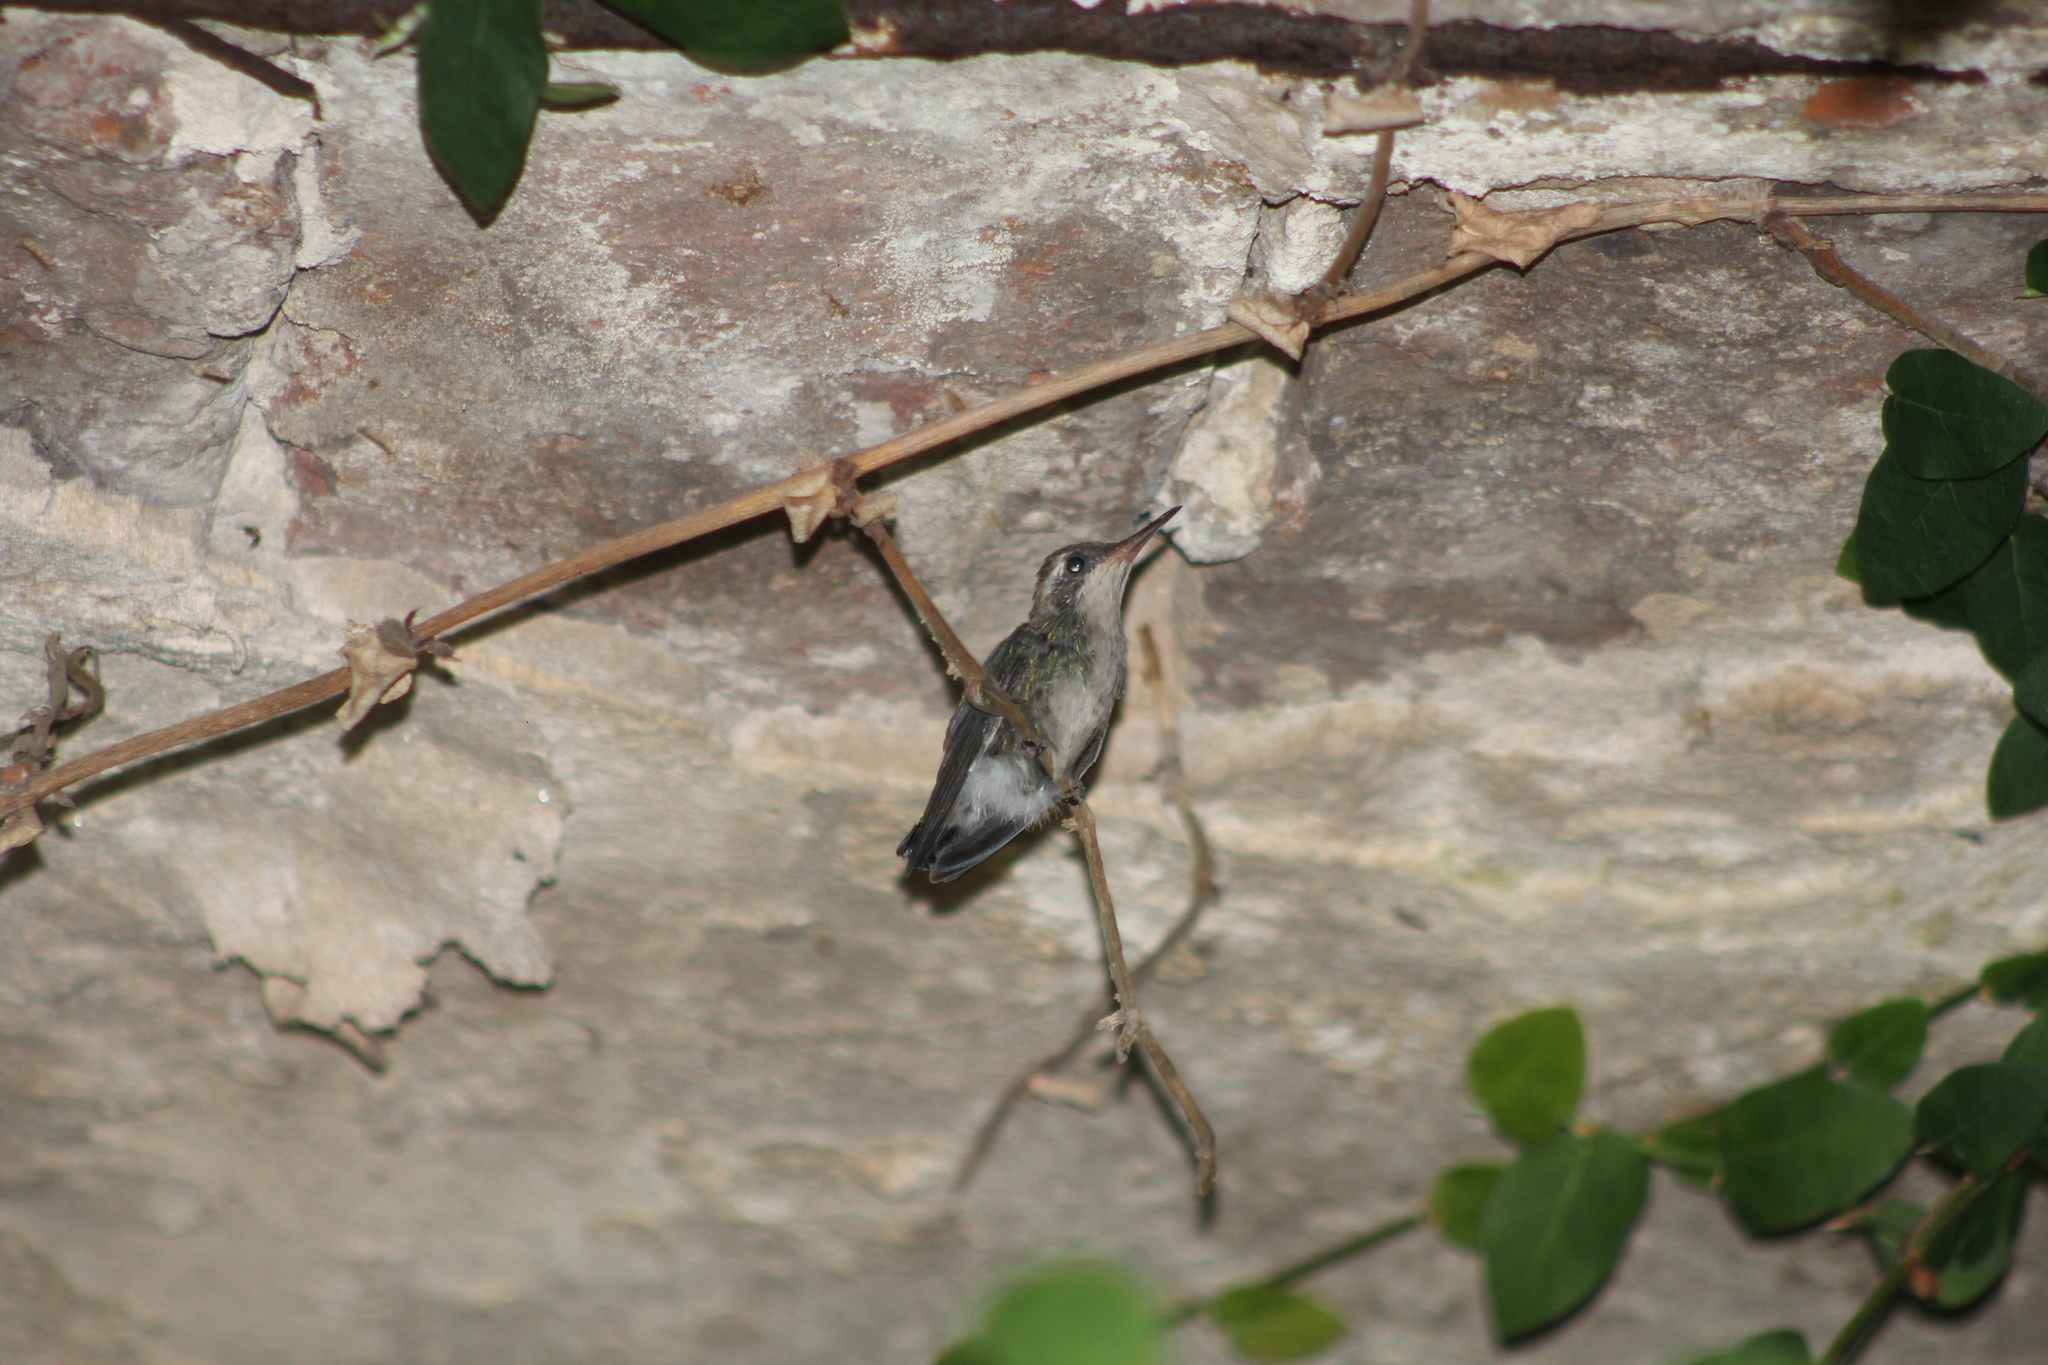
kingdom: Animalia
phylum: Chordata
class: Aves
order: Apodiformes
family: Trochilidae
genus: Chlorostilbon
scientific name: Chlorostilbon lucidus
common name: Glittering-bellied emerald
